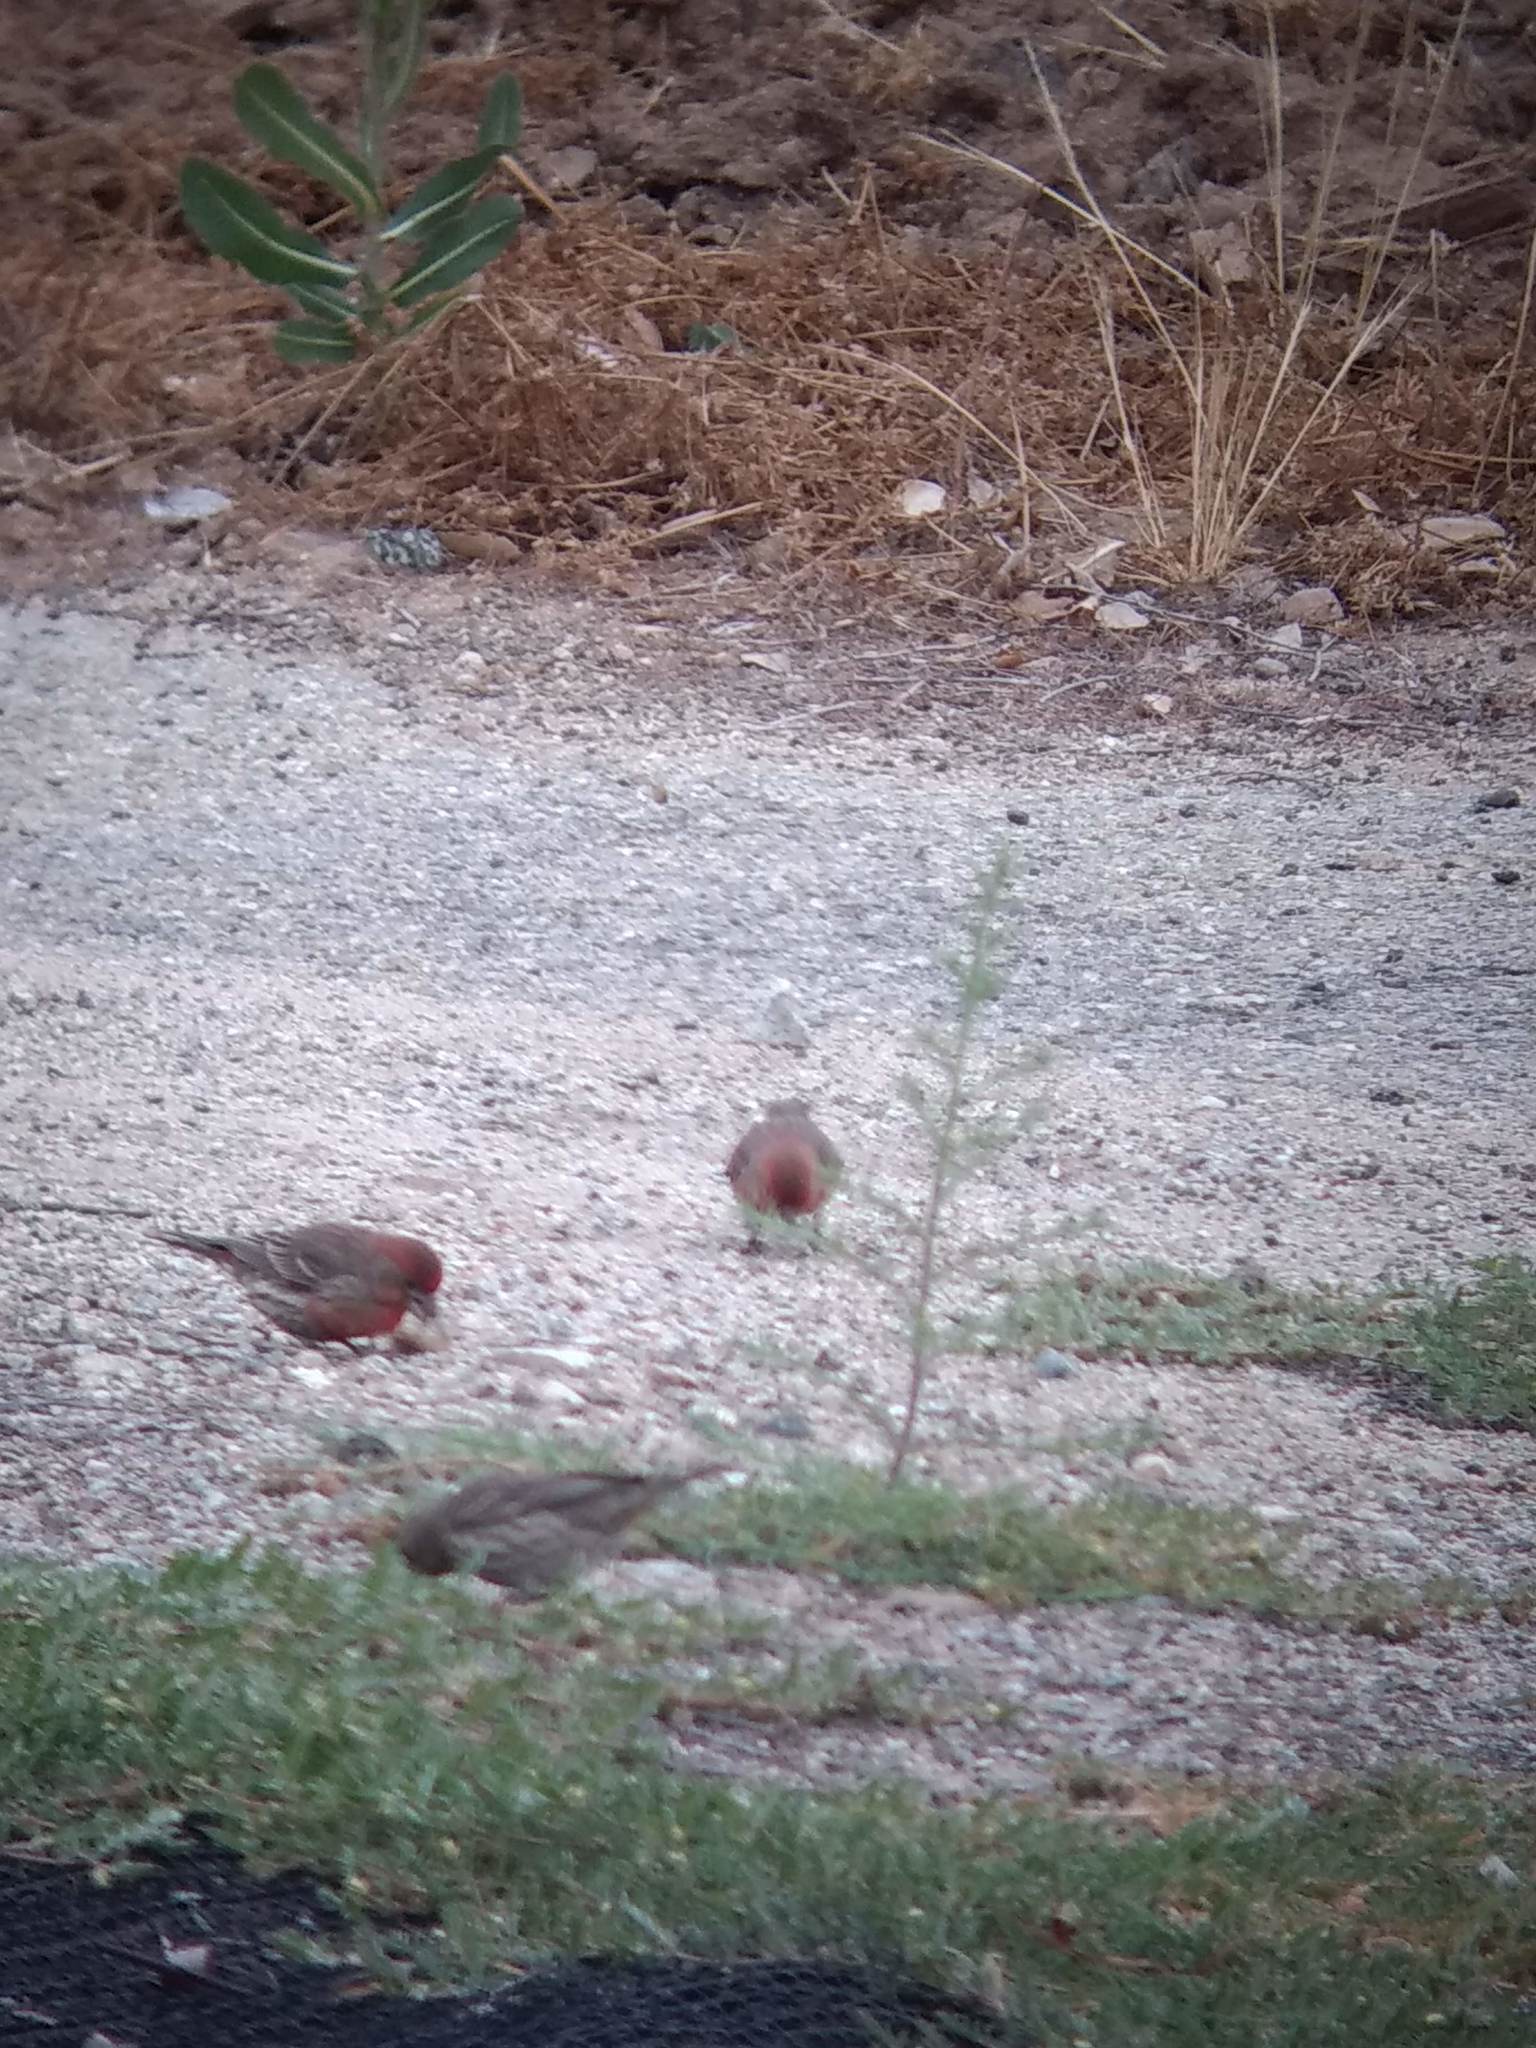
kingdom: Animalia
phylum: Chordata
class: Aves
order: Passeriformes
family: Fringillidae
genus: Haemorhous
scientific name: Haemorhous mexicanus
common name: House finch
